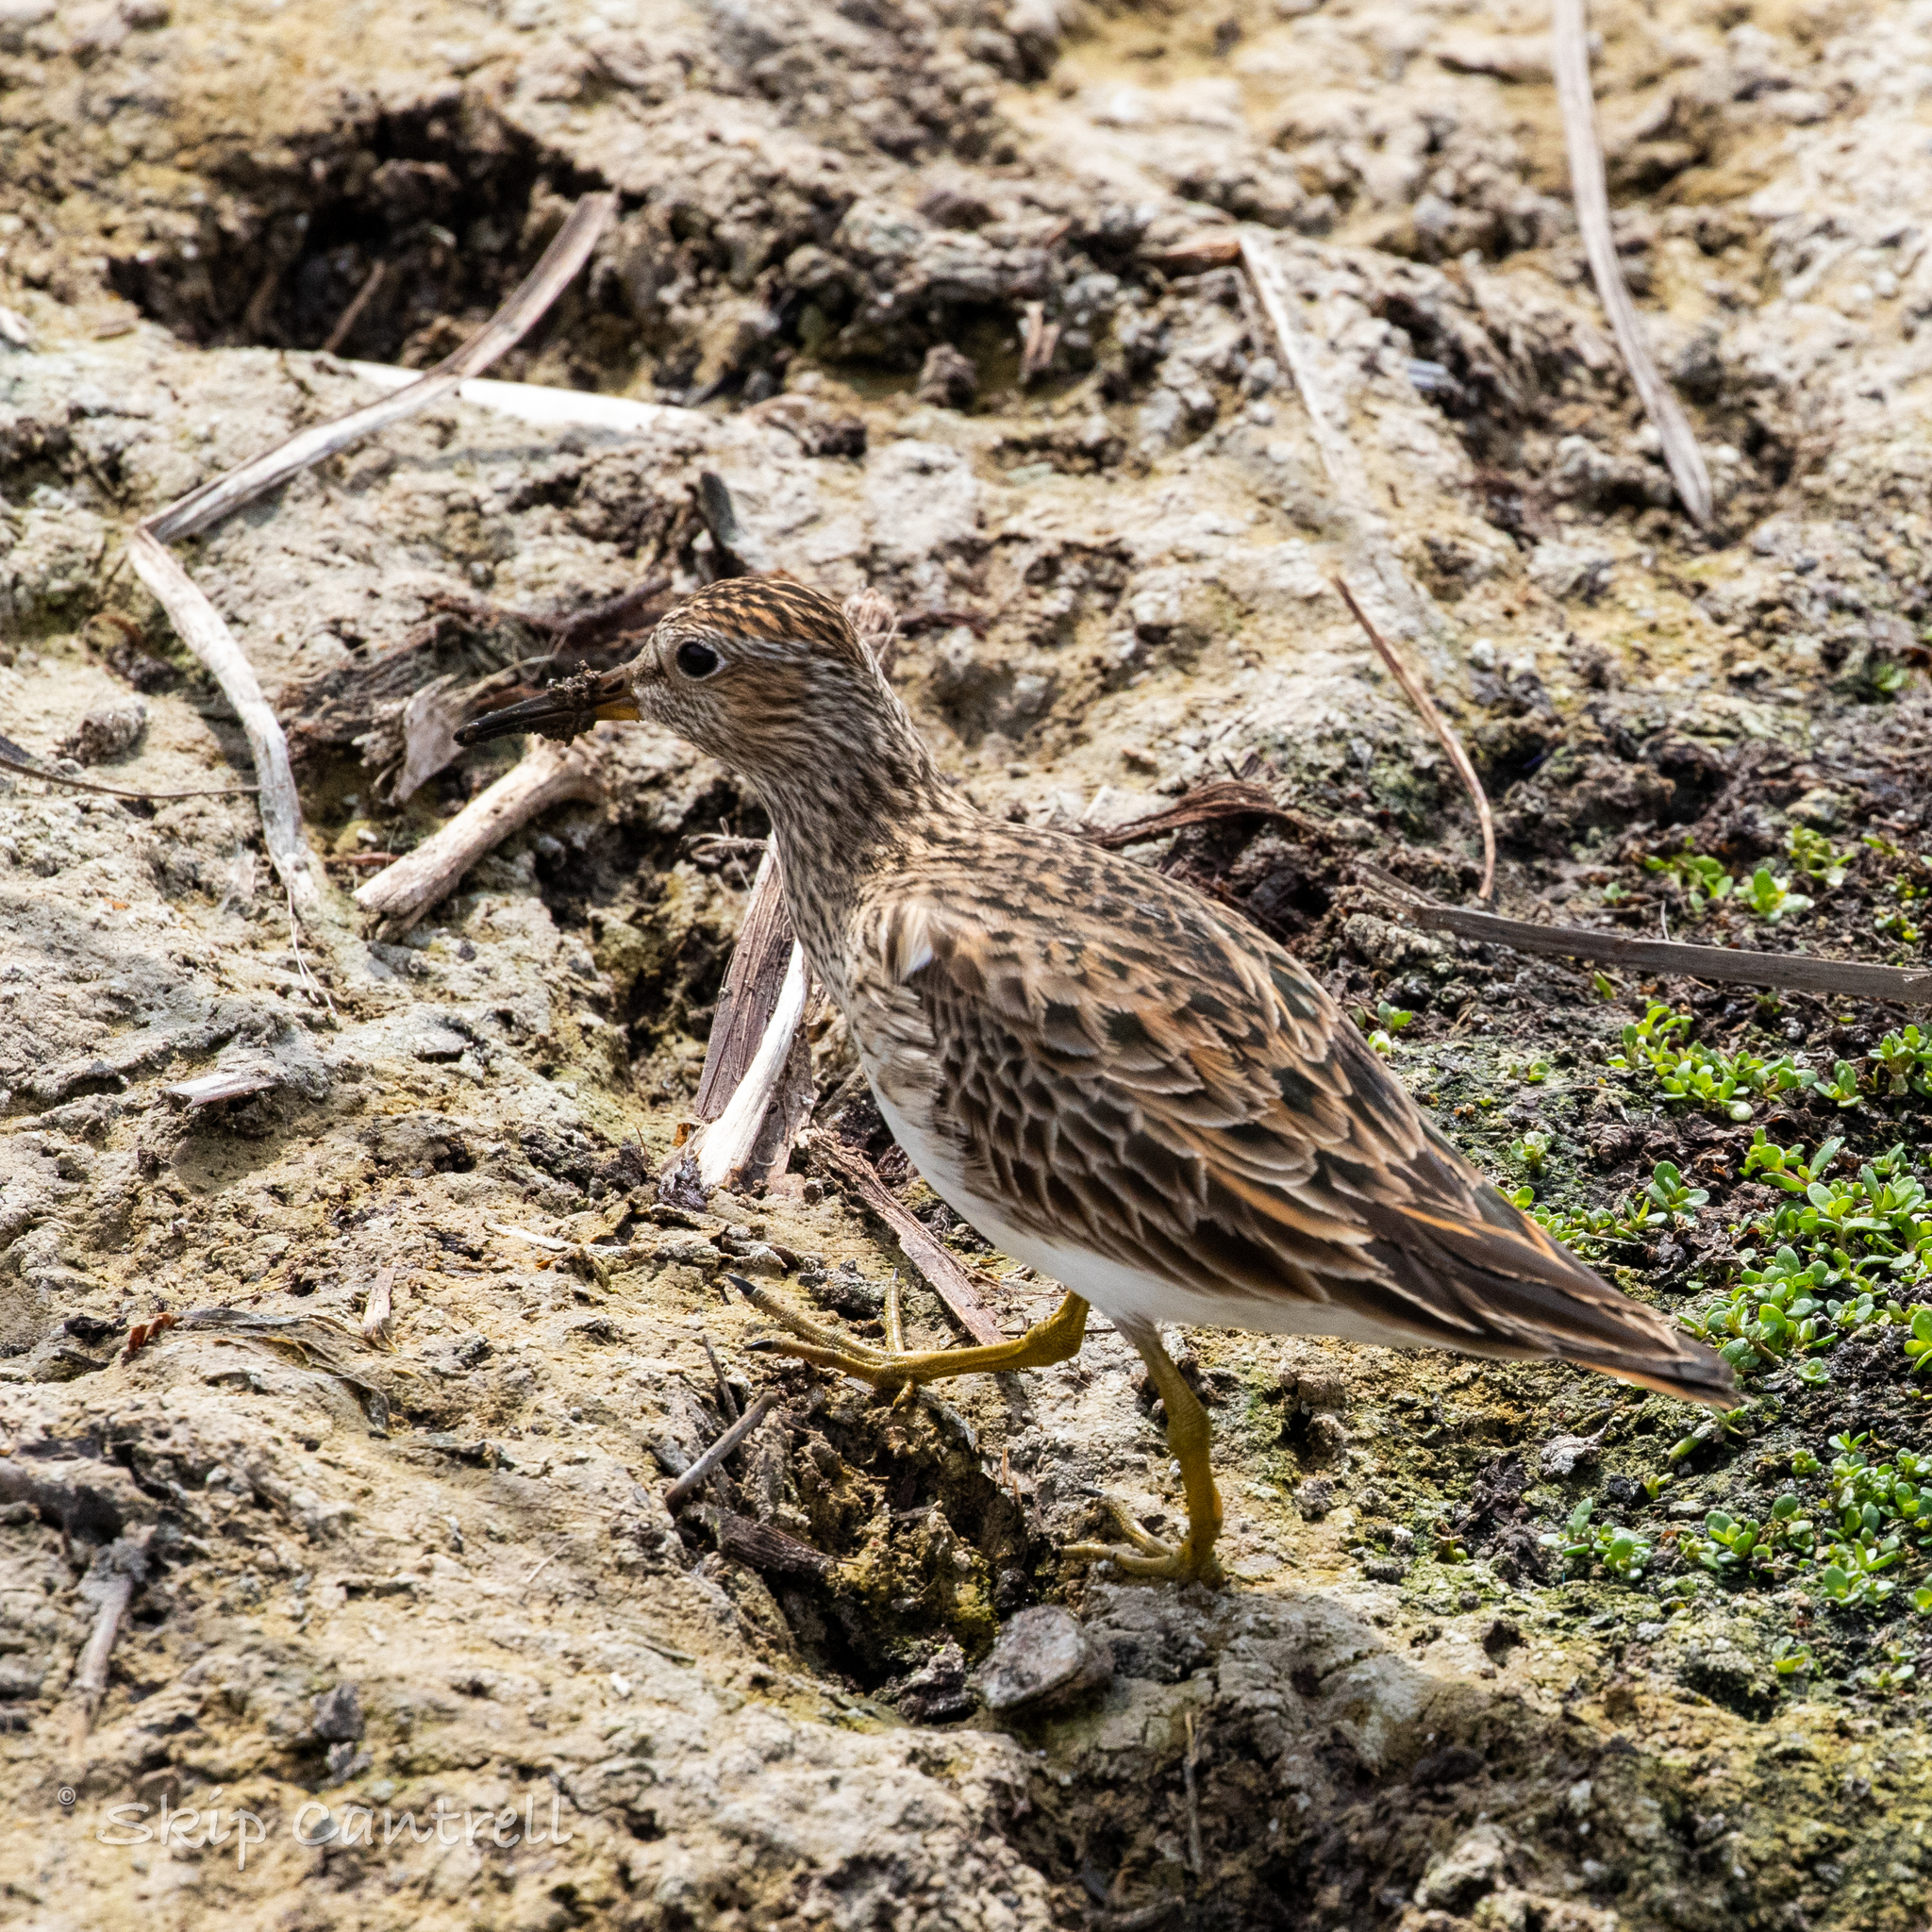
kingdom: Animalia
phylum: Chordata
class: Aves
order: Charadriiformes
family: Scolopacidae
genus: Calidris
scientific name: Calidris melanotos
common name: Pectoral sandpiper
